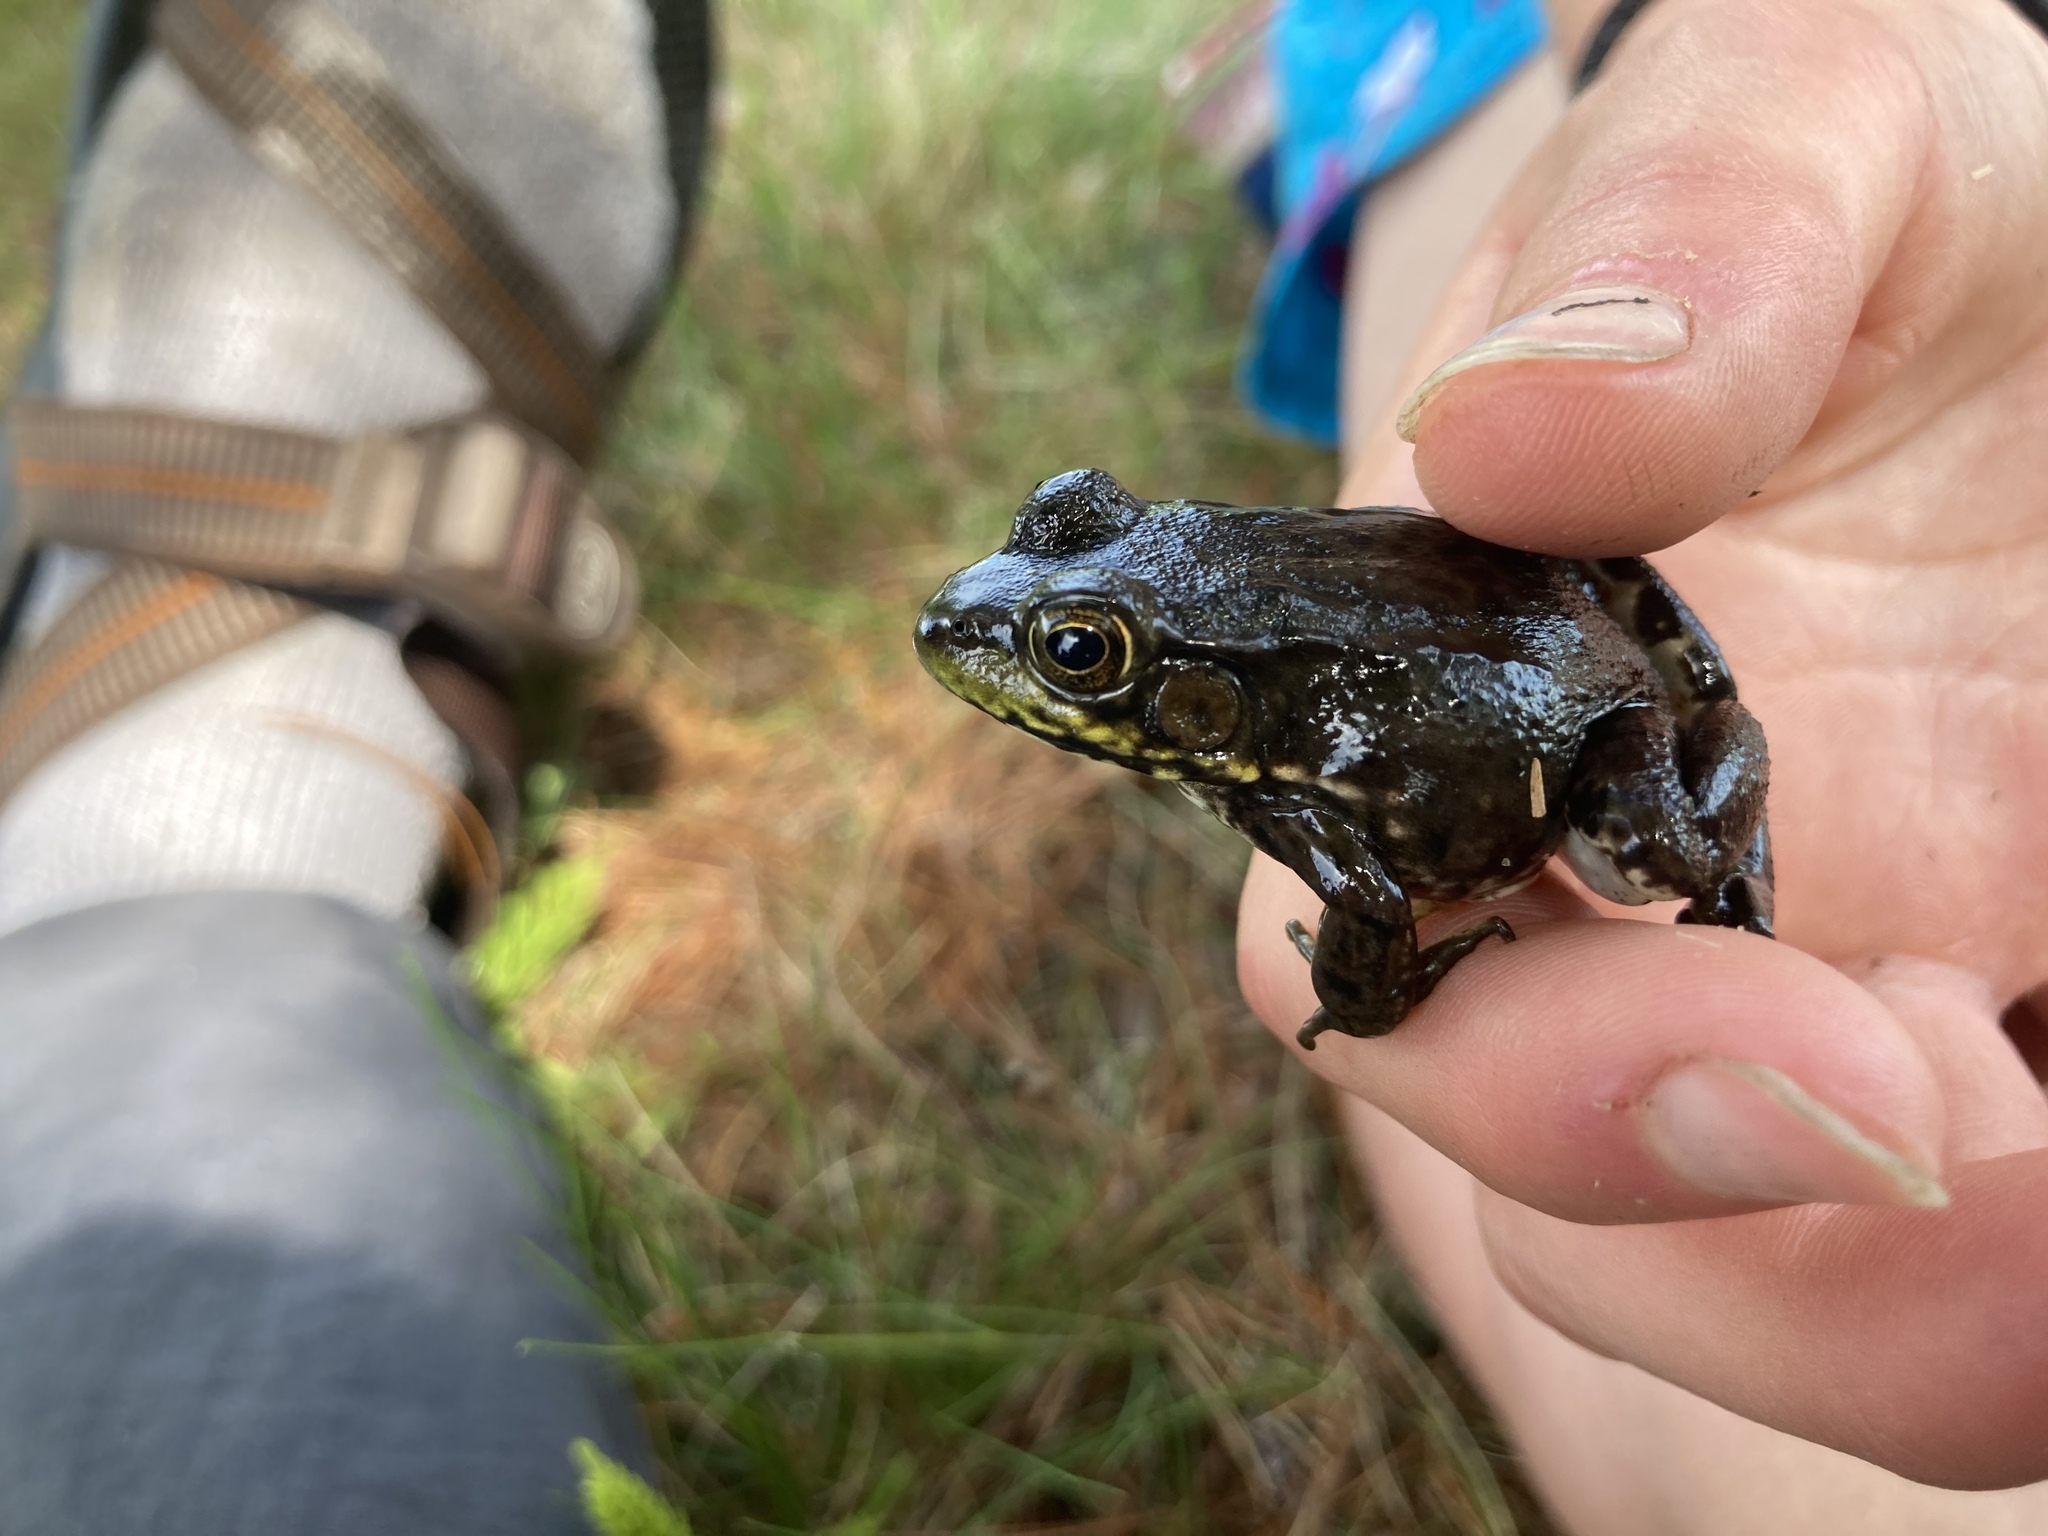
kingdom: Animalia
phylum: Chordata
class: Amphibia
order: Anura
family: Ranidae
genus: Lithobates
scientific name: Lithobates clamitans
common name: Green frog
